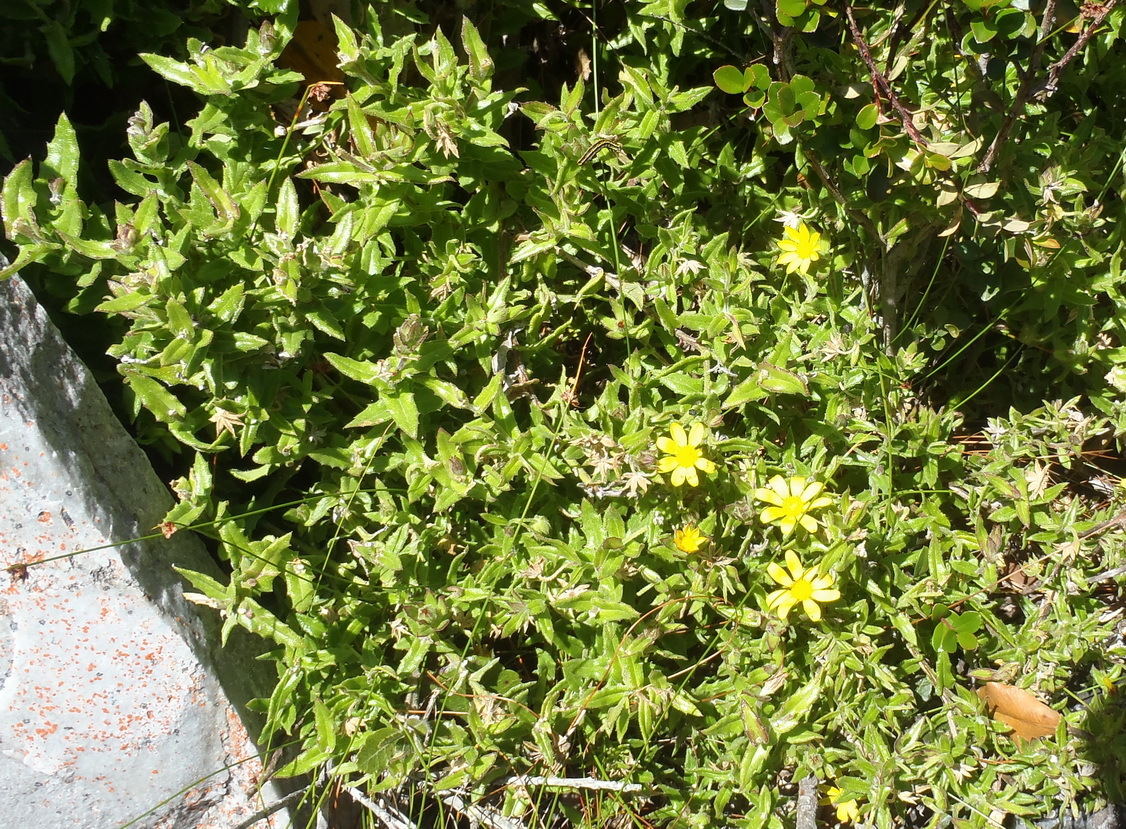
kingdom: Plantae
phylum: Tracheophyta
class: Magnoliopsida
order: Asterales
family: Asteraceae
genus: Osteospermum
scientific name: Osteospermum ilicifolium
